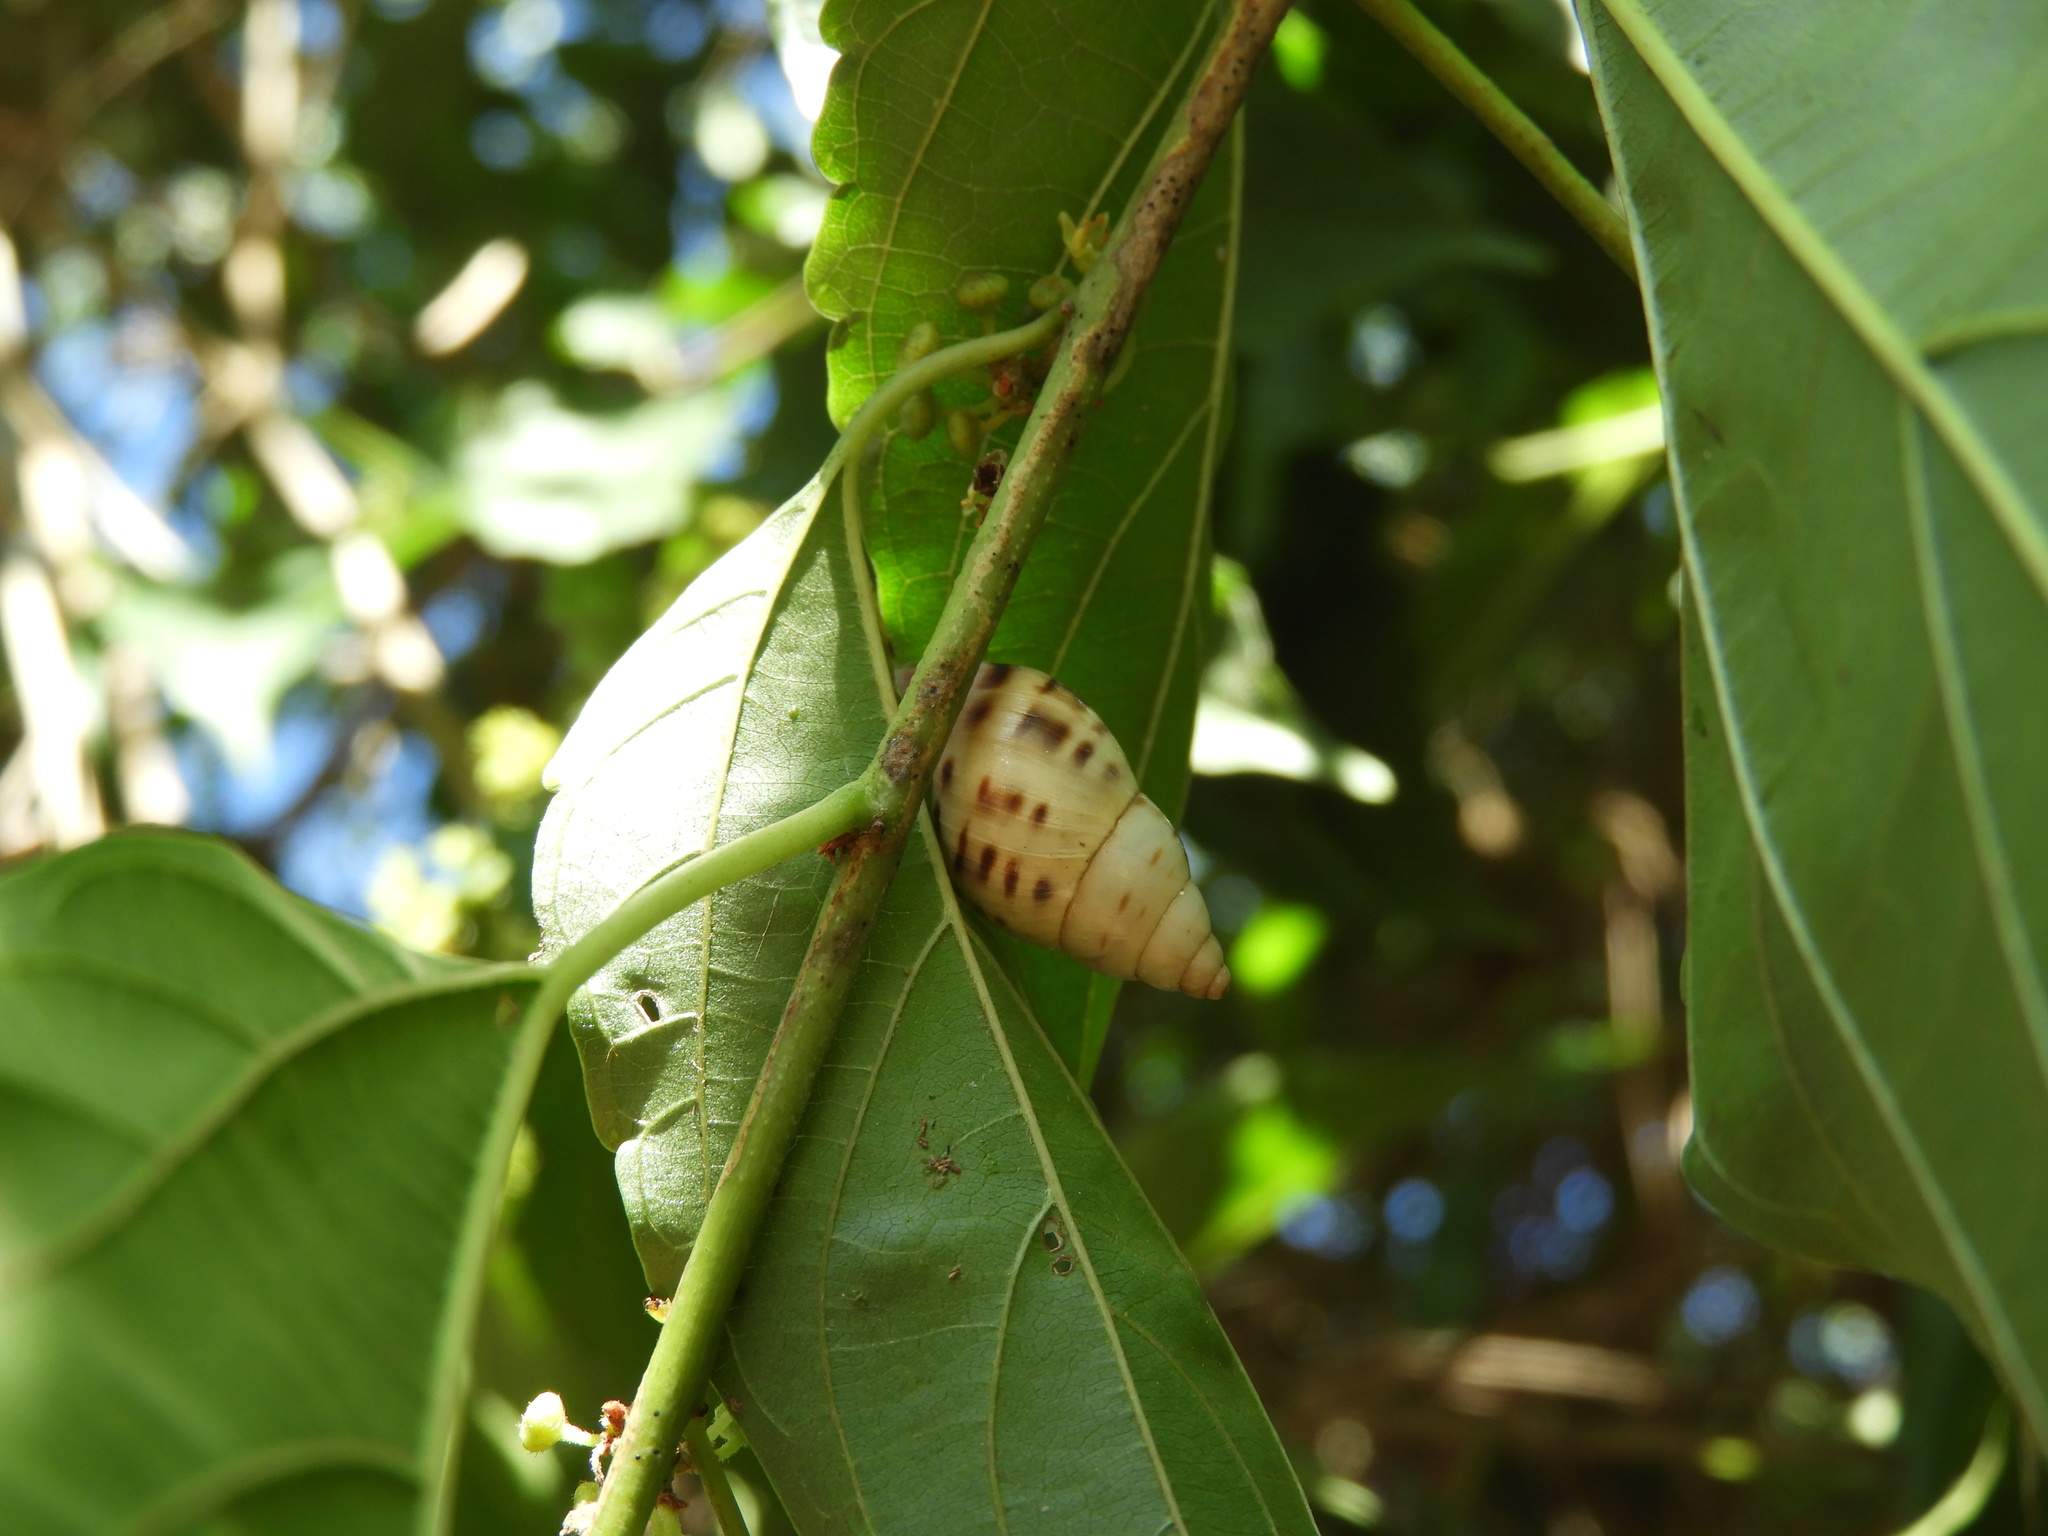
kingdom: Animalia
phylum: Mollusca
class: Gastropoda
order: Stylommatophora
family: Bulimulidae
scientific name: Bulimulidae
